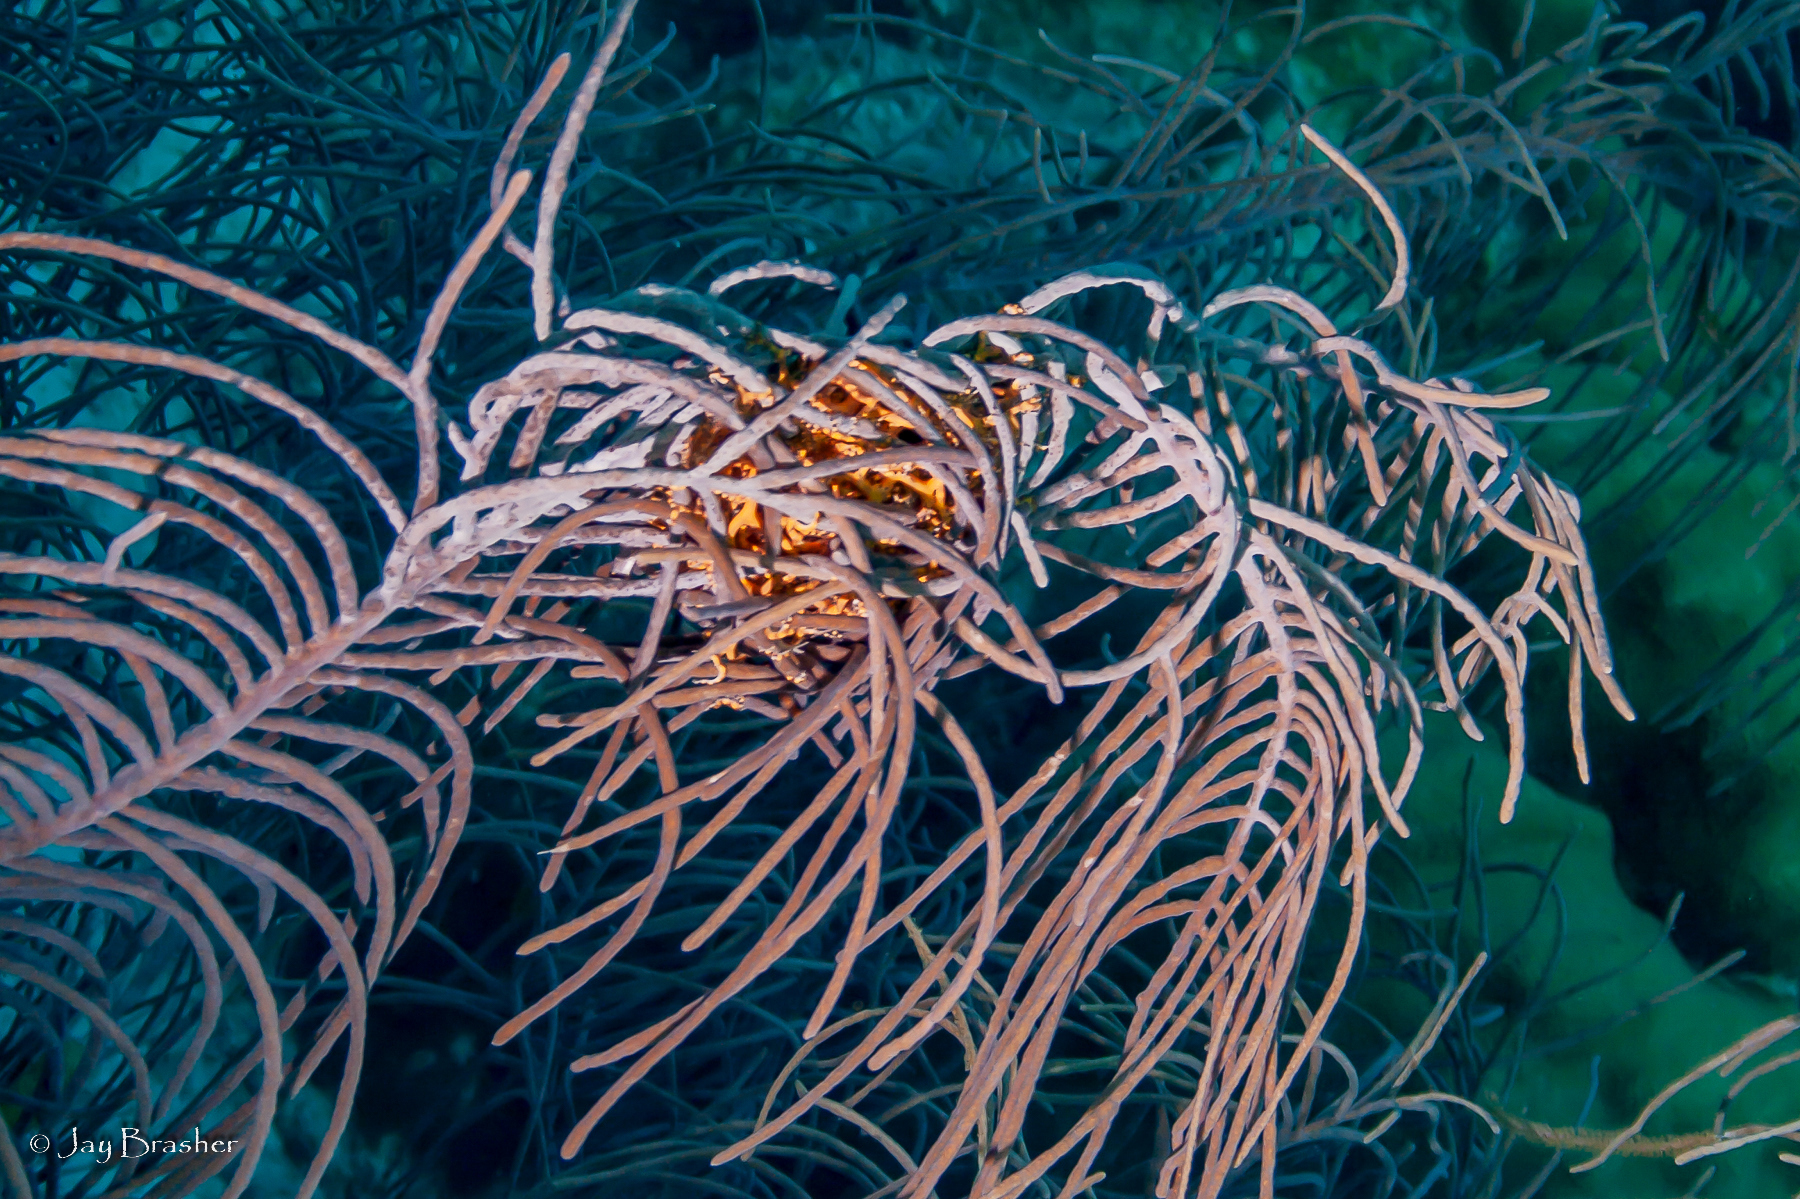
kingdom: Animalia
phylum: Echinodermata
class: Ophiuroidea
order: Euryalida
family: Gorgonocephalidae
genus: Astrophyton
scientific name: Astrophyton muricatum
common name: Basket starfish
